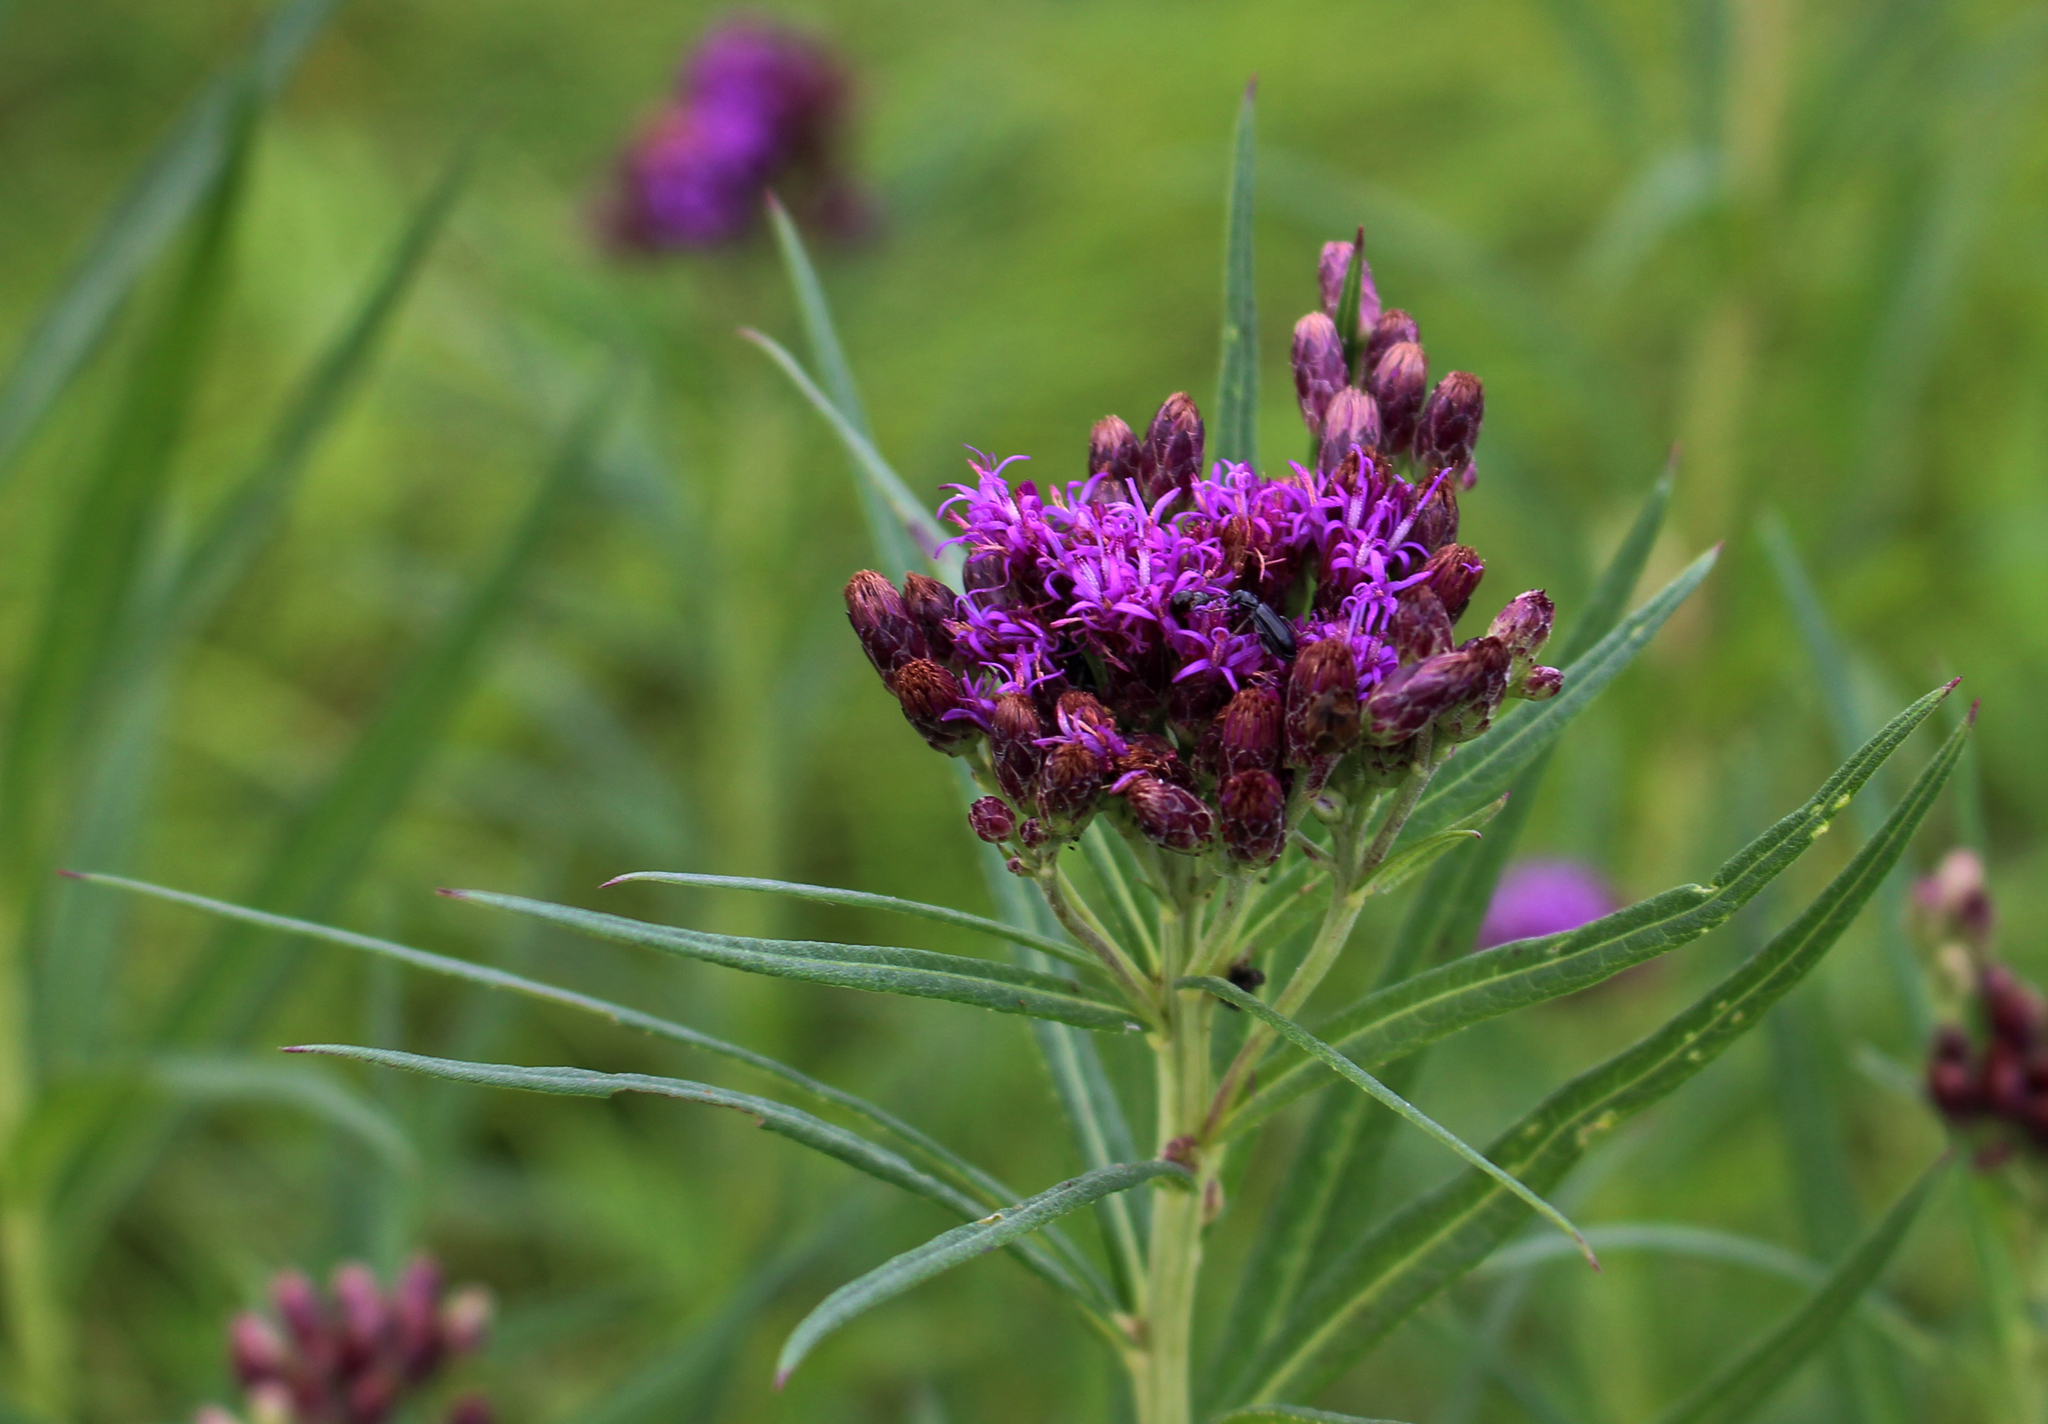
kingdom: Plantae
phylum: Tracheophyta
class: Magnoliopsida
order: Asterales
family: Asteraceae
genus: Vernonia
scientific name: Vernonia fasciculata
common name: Fascicled ironweed
